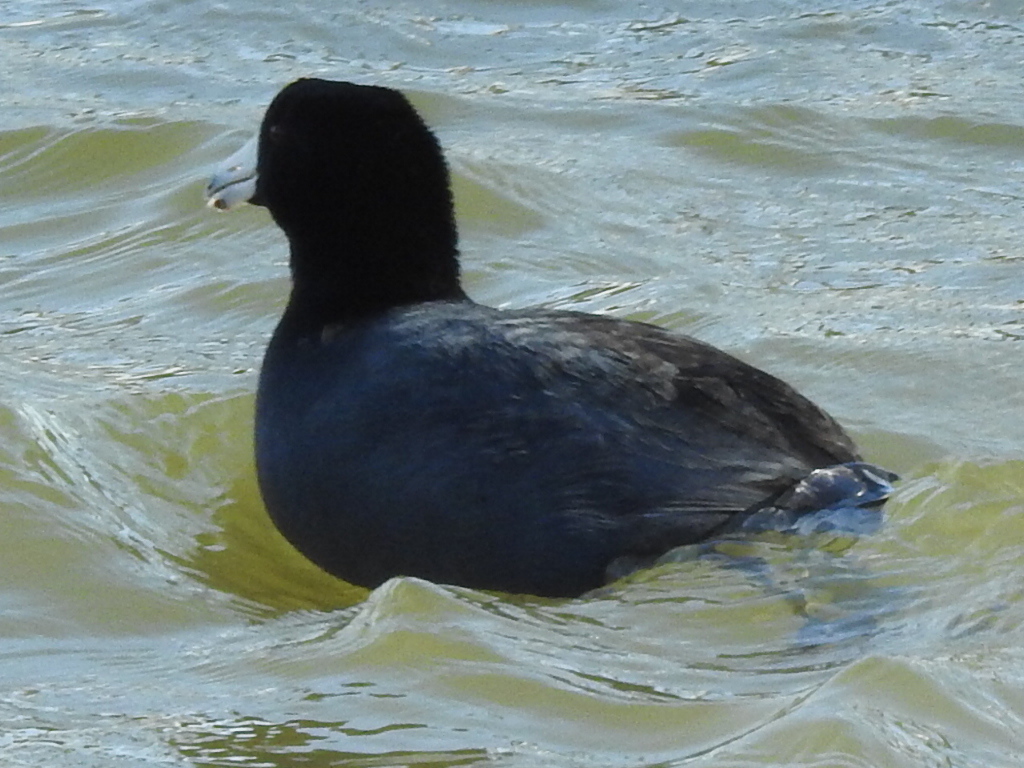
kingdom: Animalia
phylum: Chordata
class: Aves
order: Gruiformes
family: Rallidae
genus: Fulica
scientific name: Fulica americana
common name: American coot
